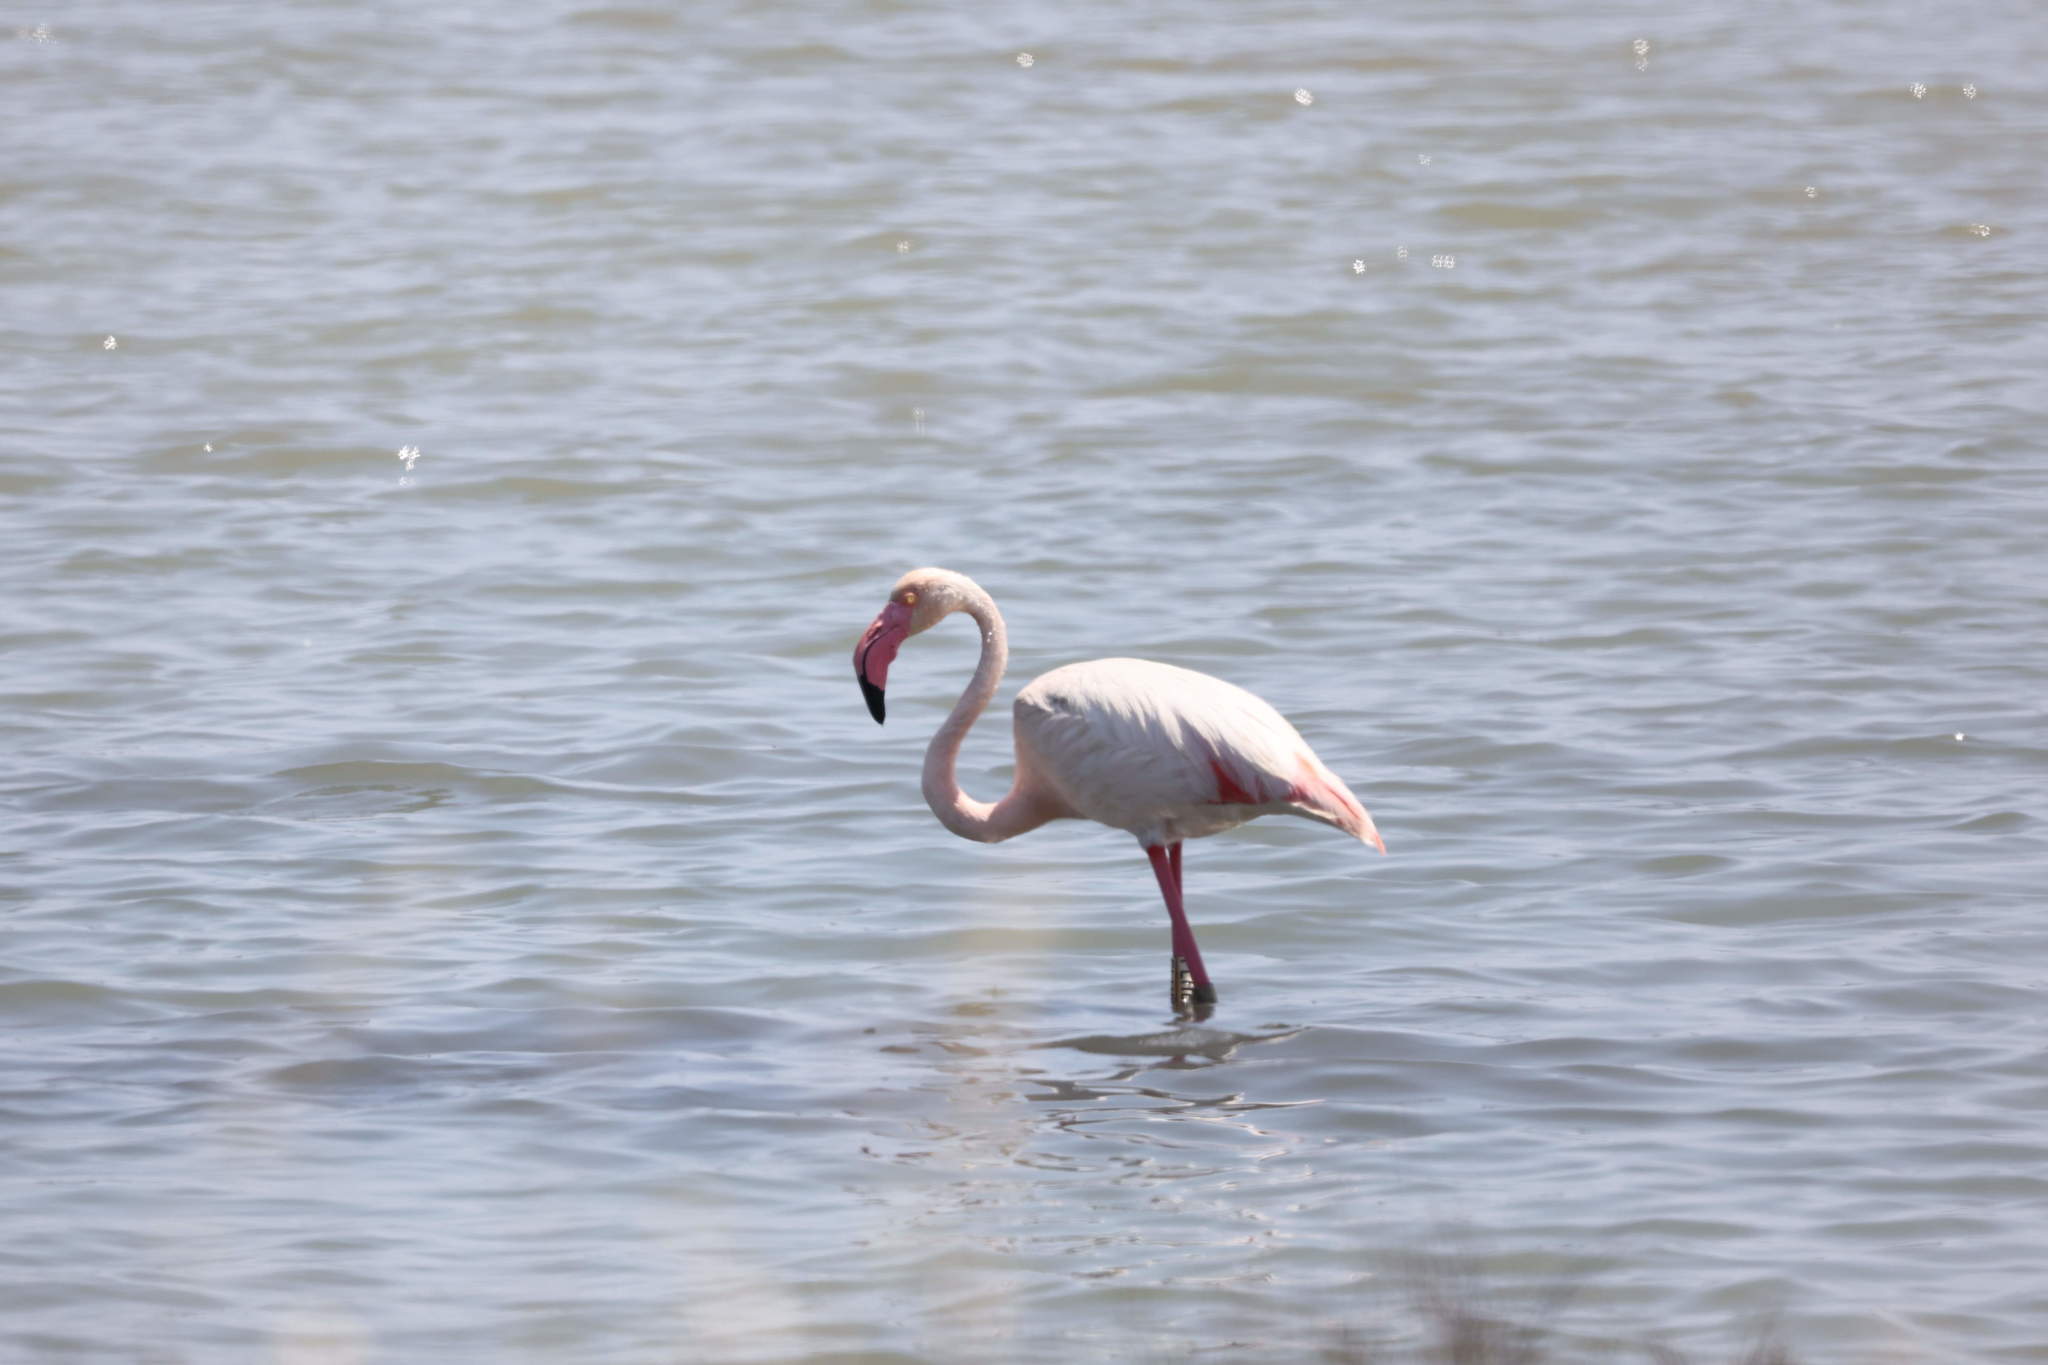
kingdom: Animalia
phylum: Chordata
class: Aves
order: Phoenicopteriformes
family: Phoenicopteridae
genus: Phoenicopterus
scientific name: Phoenicopterus roseus
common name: Greater flamingo
